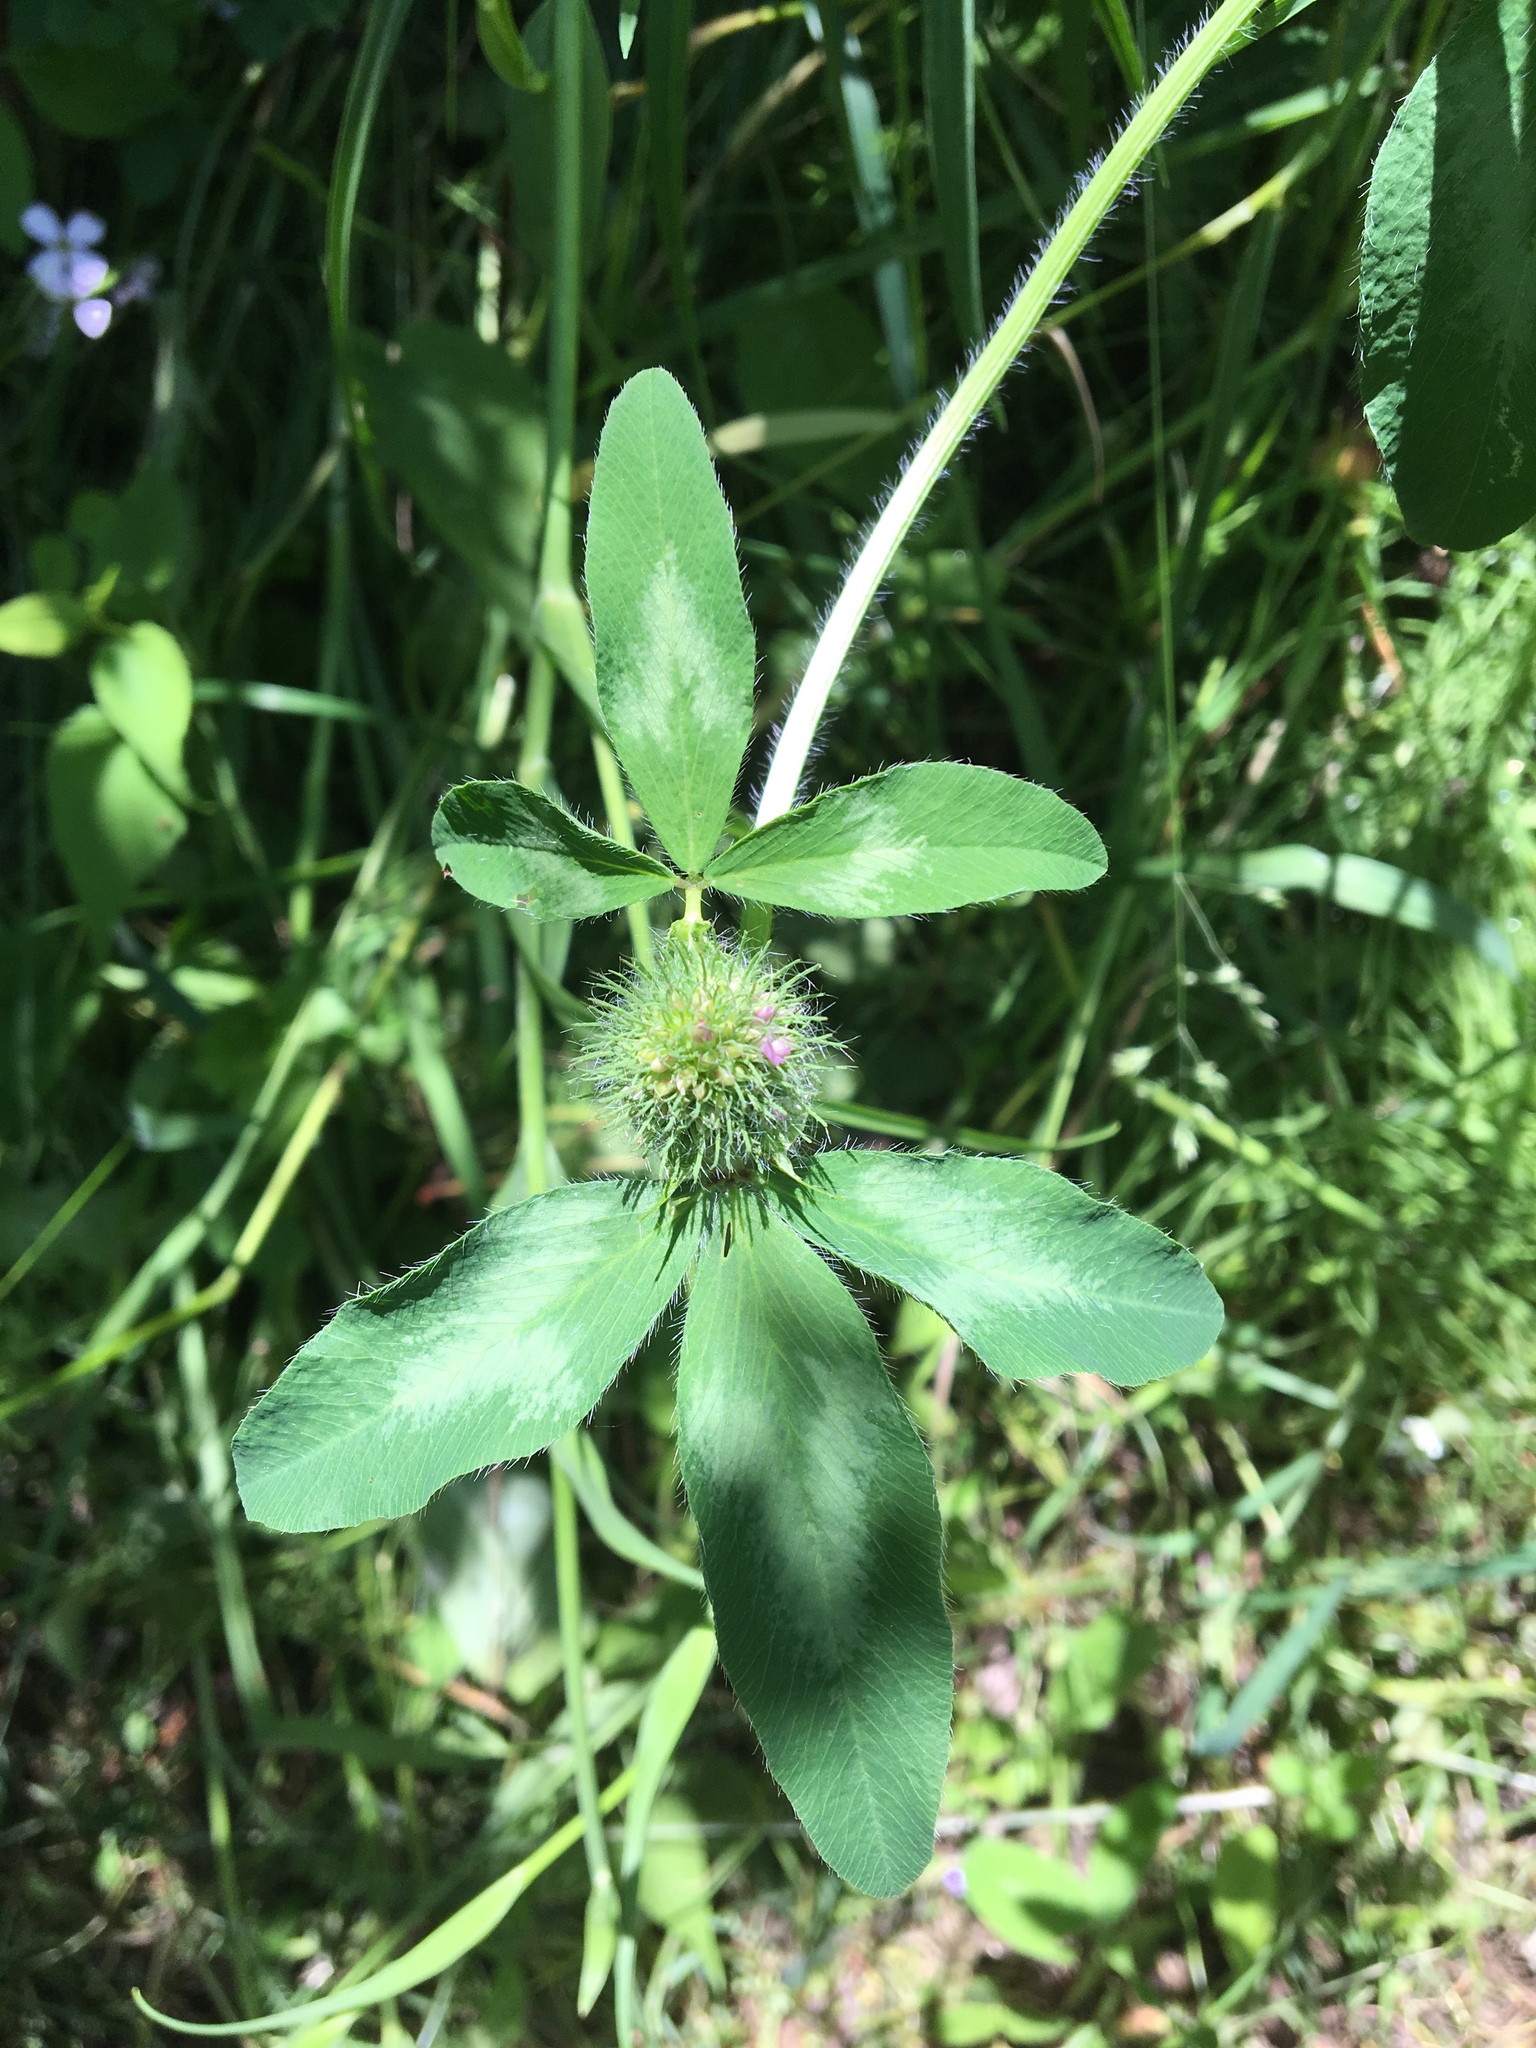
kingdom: Plantae
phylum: Tracheophyta
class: Magnoliopsida
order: Fabales
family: Fabaceae
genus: Trifolium
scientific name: Trifolium pratense
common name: Red clover
